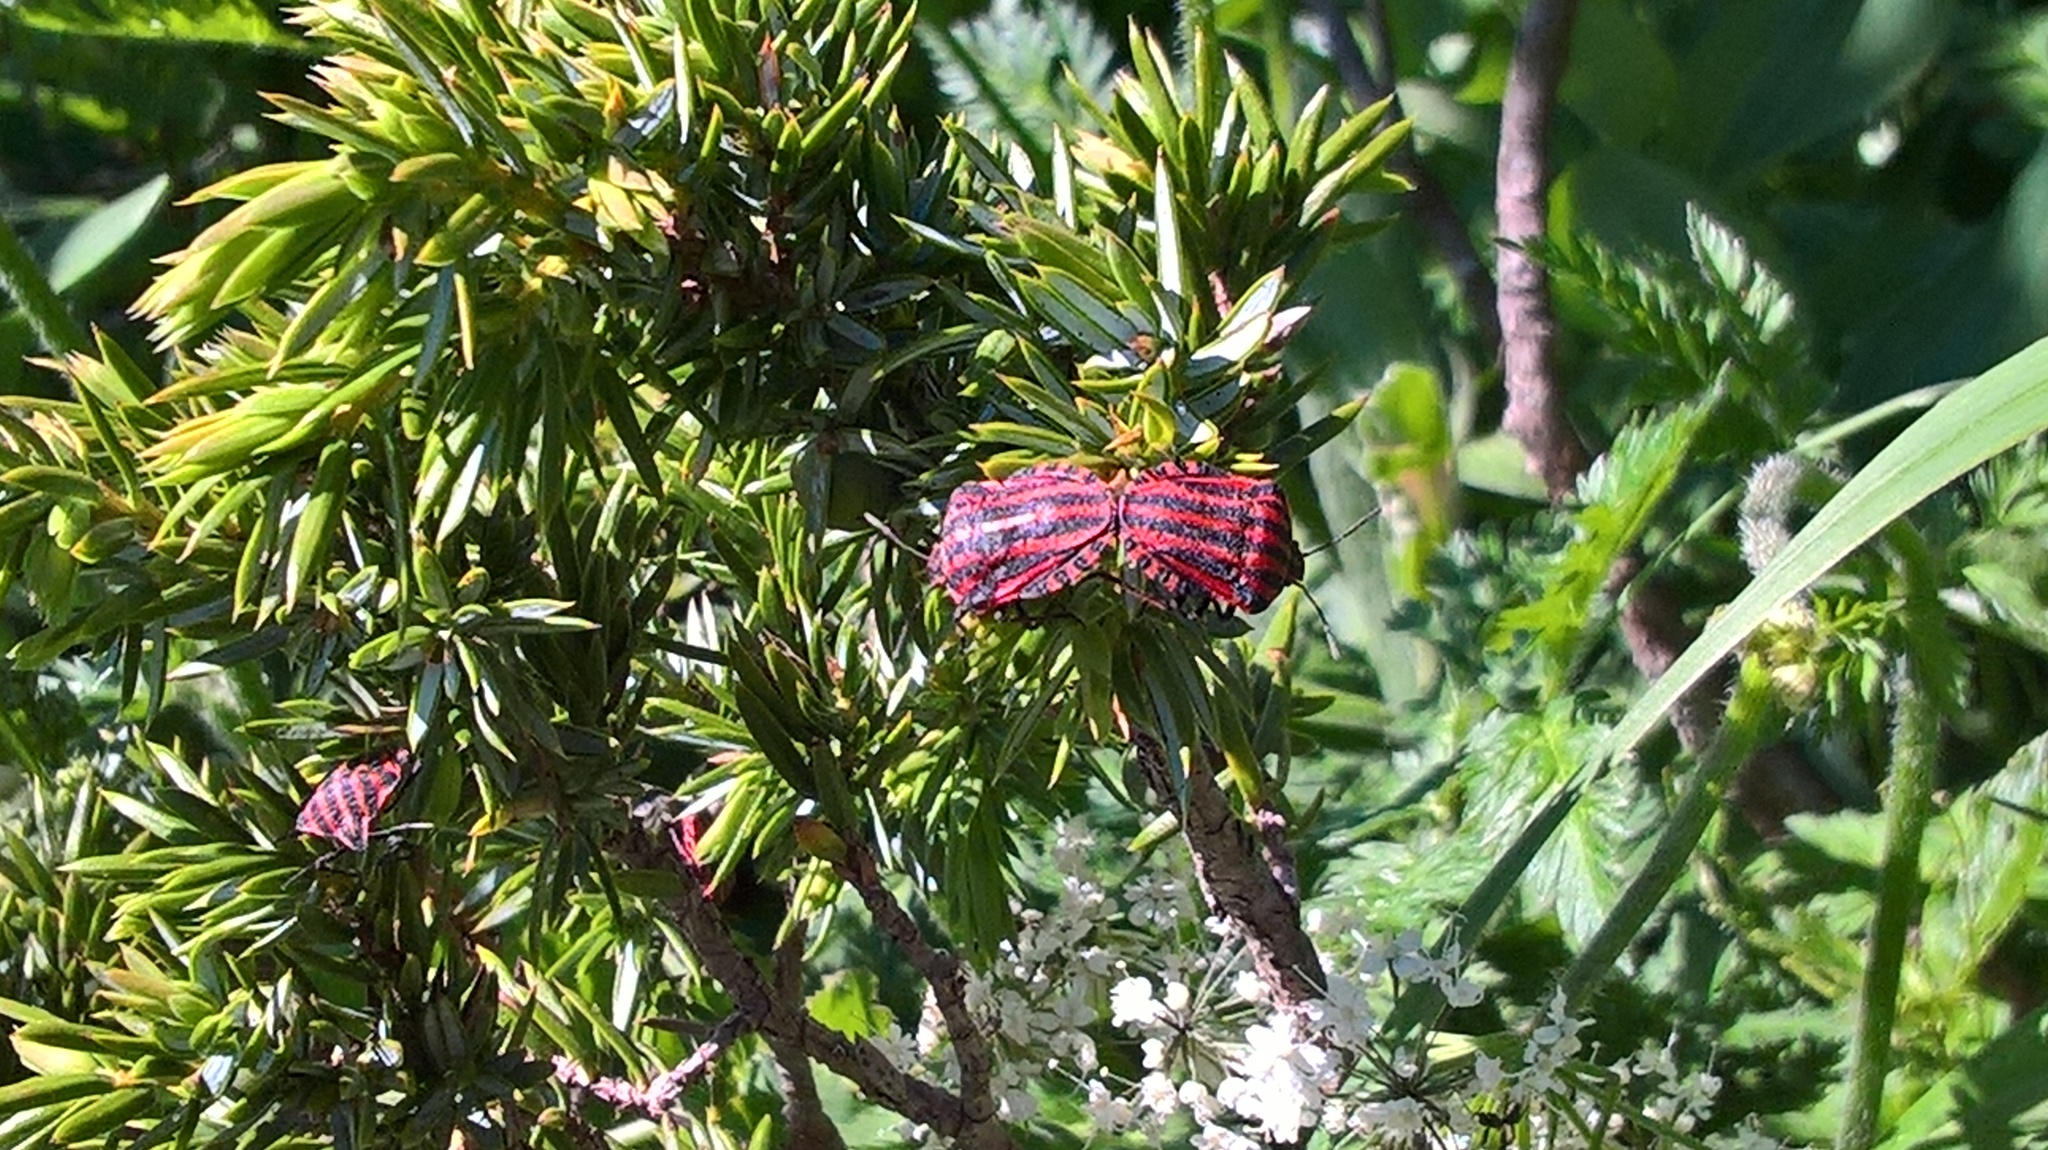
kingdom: Animalia
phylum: Arthropoda
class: Insecta
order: Hemiptera
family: Pentatomidae
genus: Graphosoma
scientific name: Graphosoma italicum
